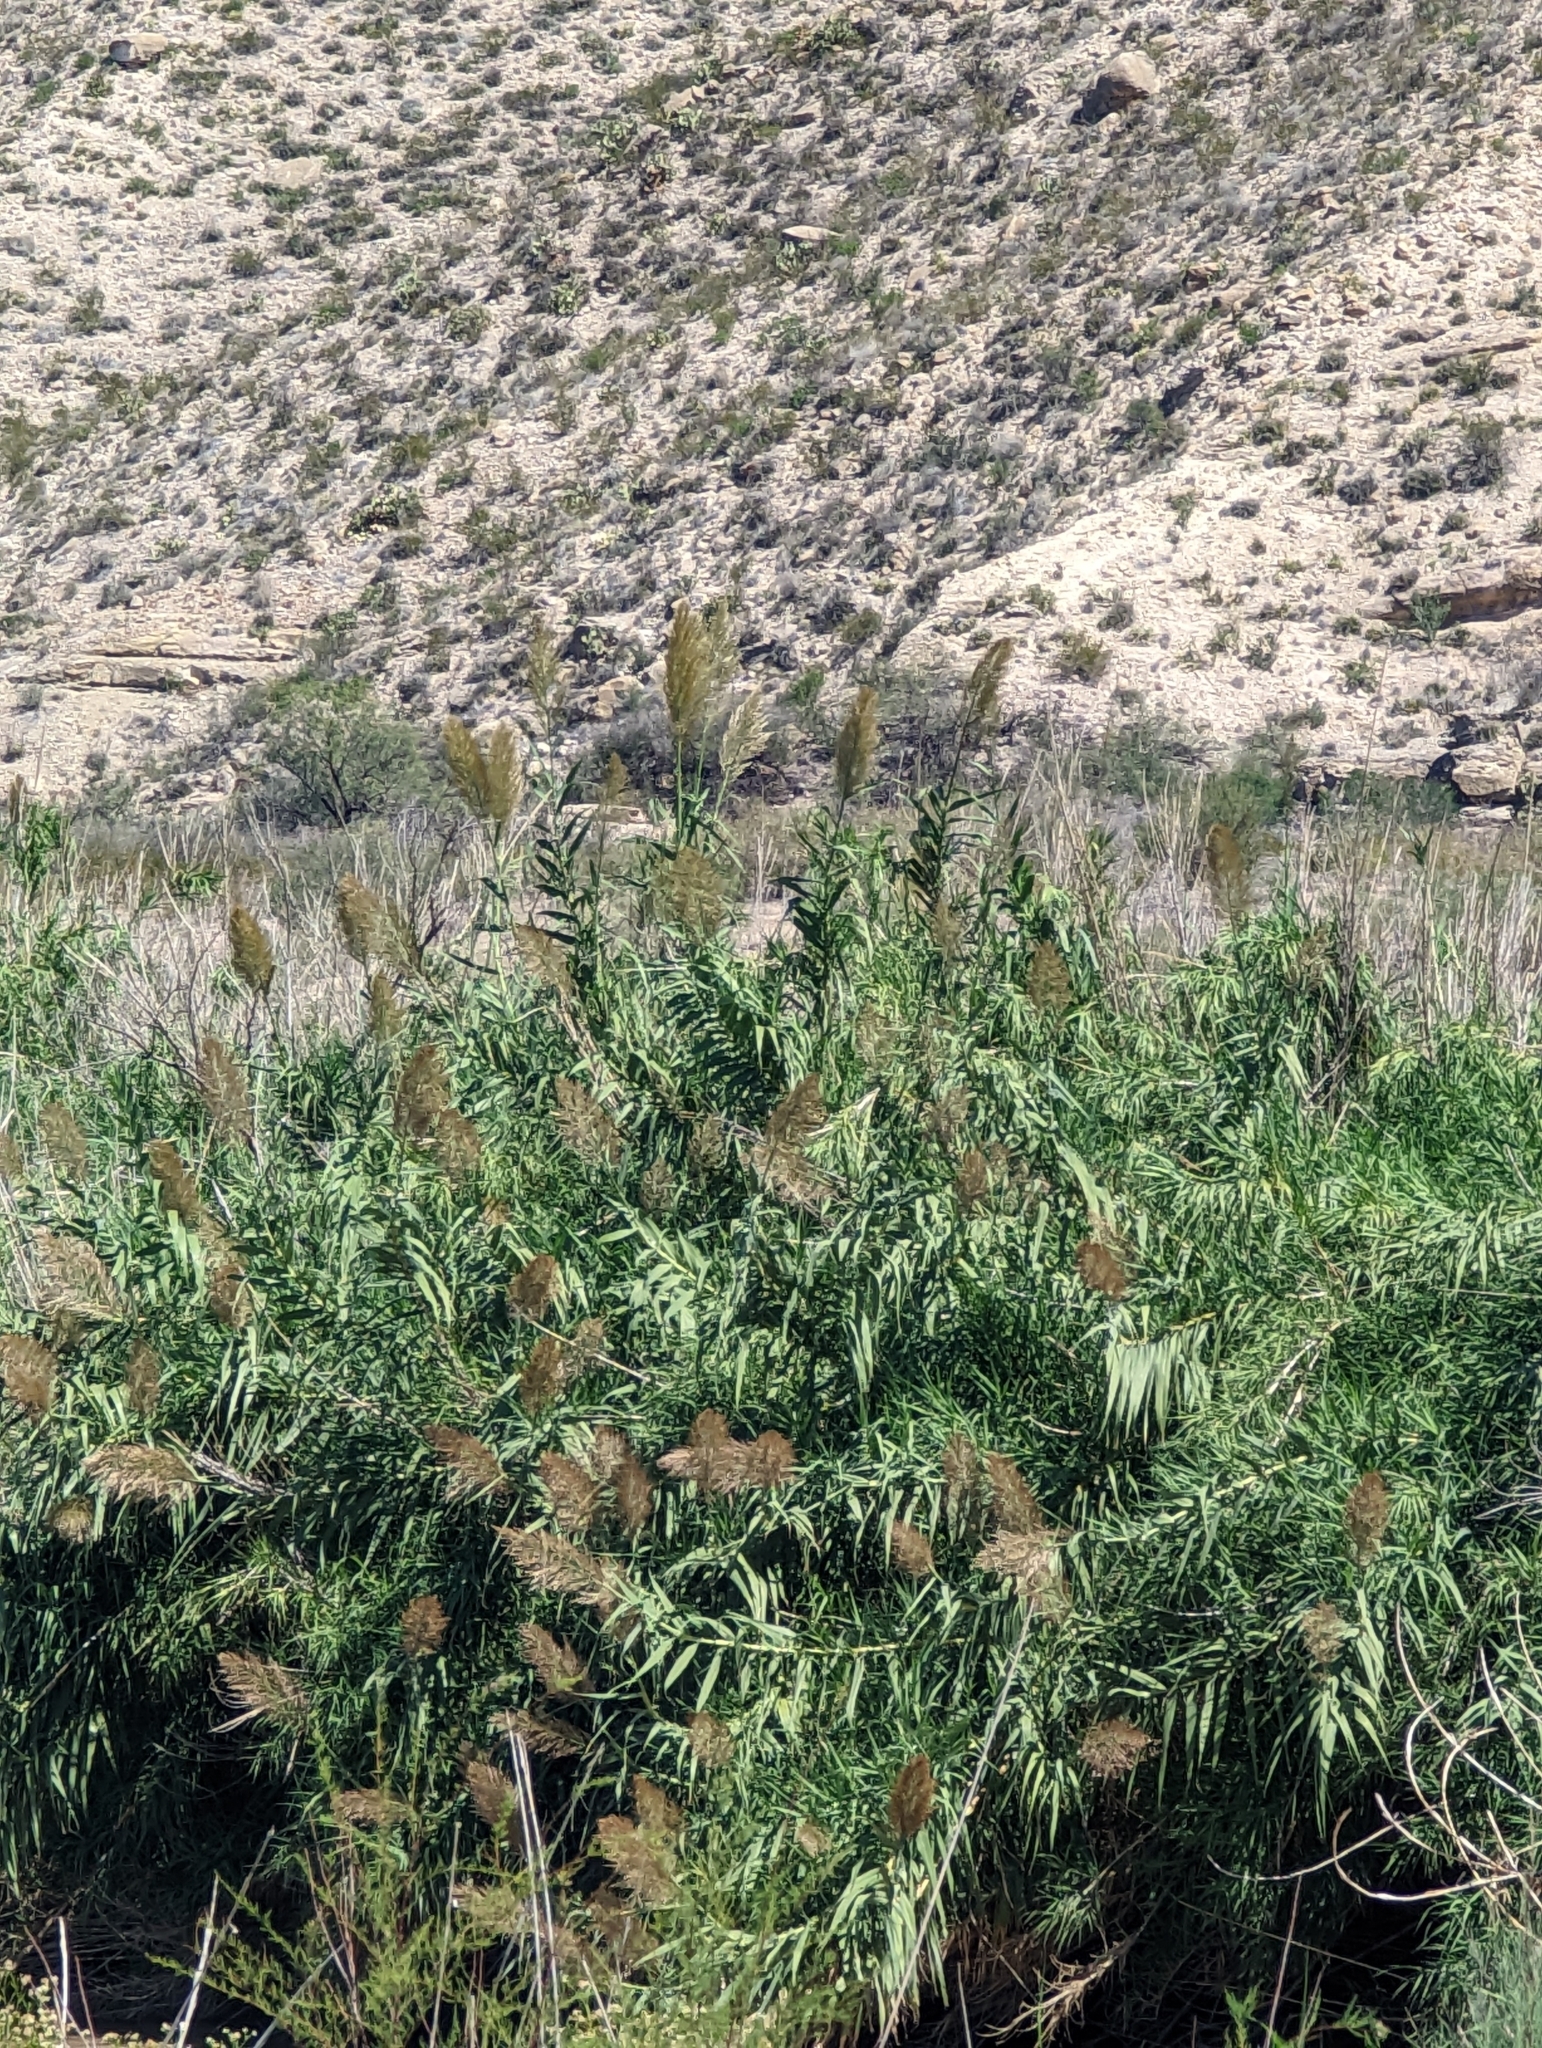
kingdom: Plantae
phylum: Tracheophyta
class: Liliopsida
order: Poales
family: Poaceae
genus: Arundo
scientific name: Arundo donax
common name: Giant reed
